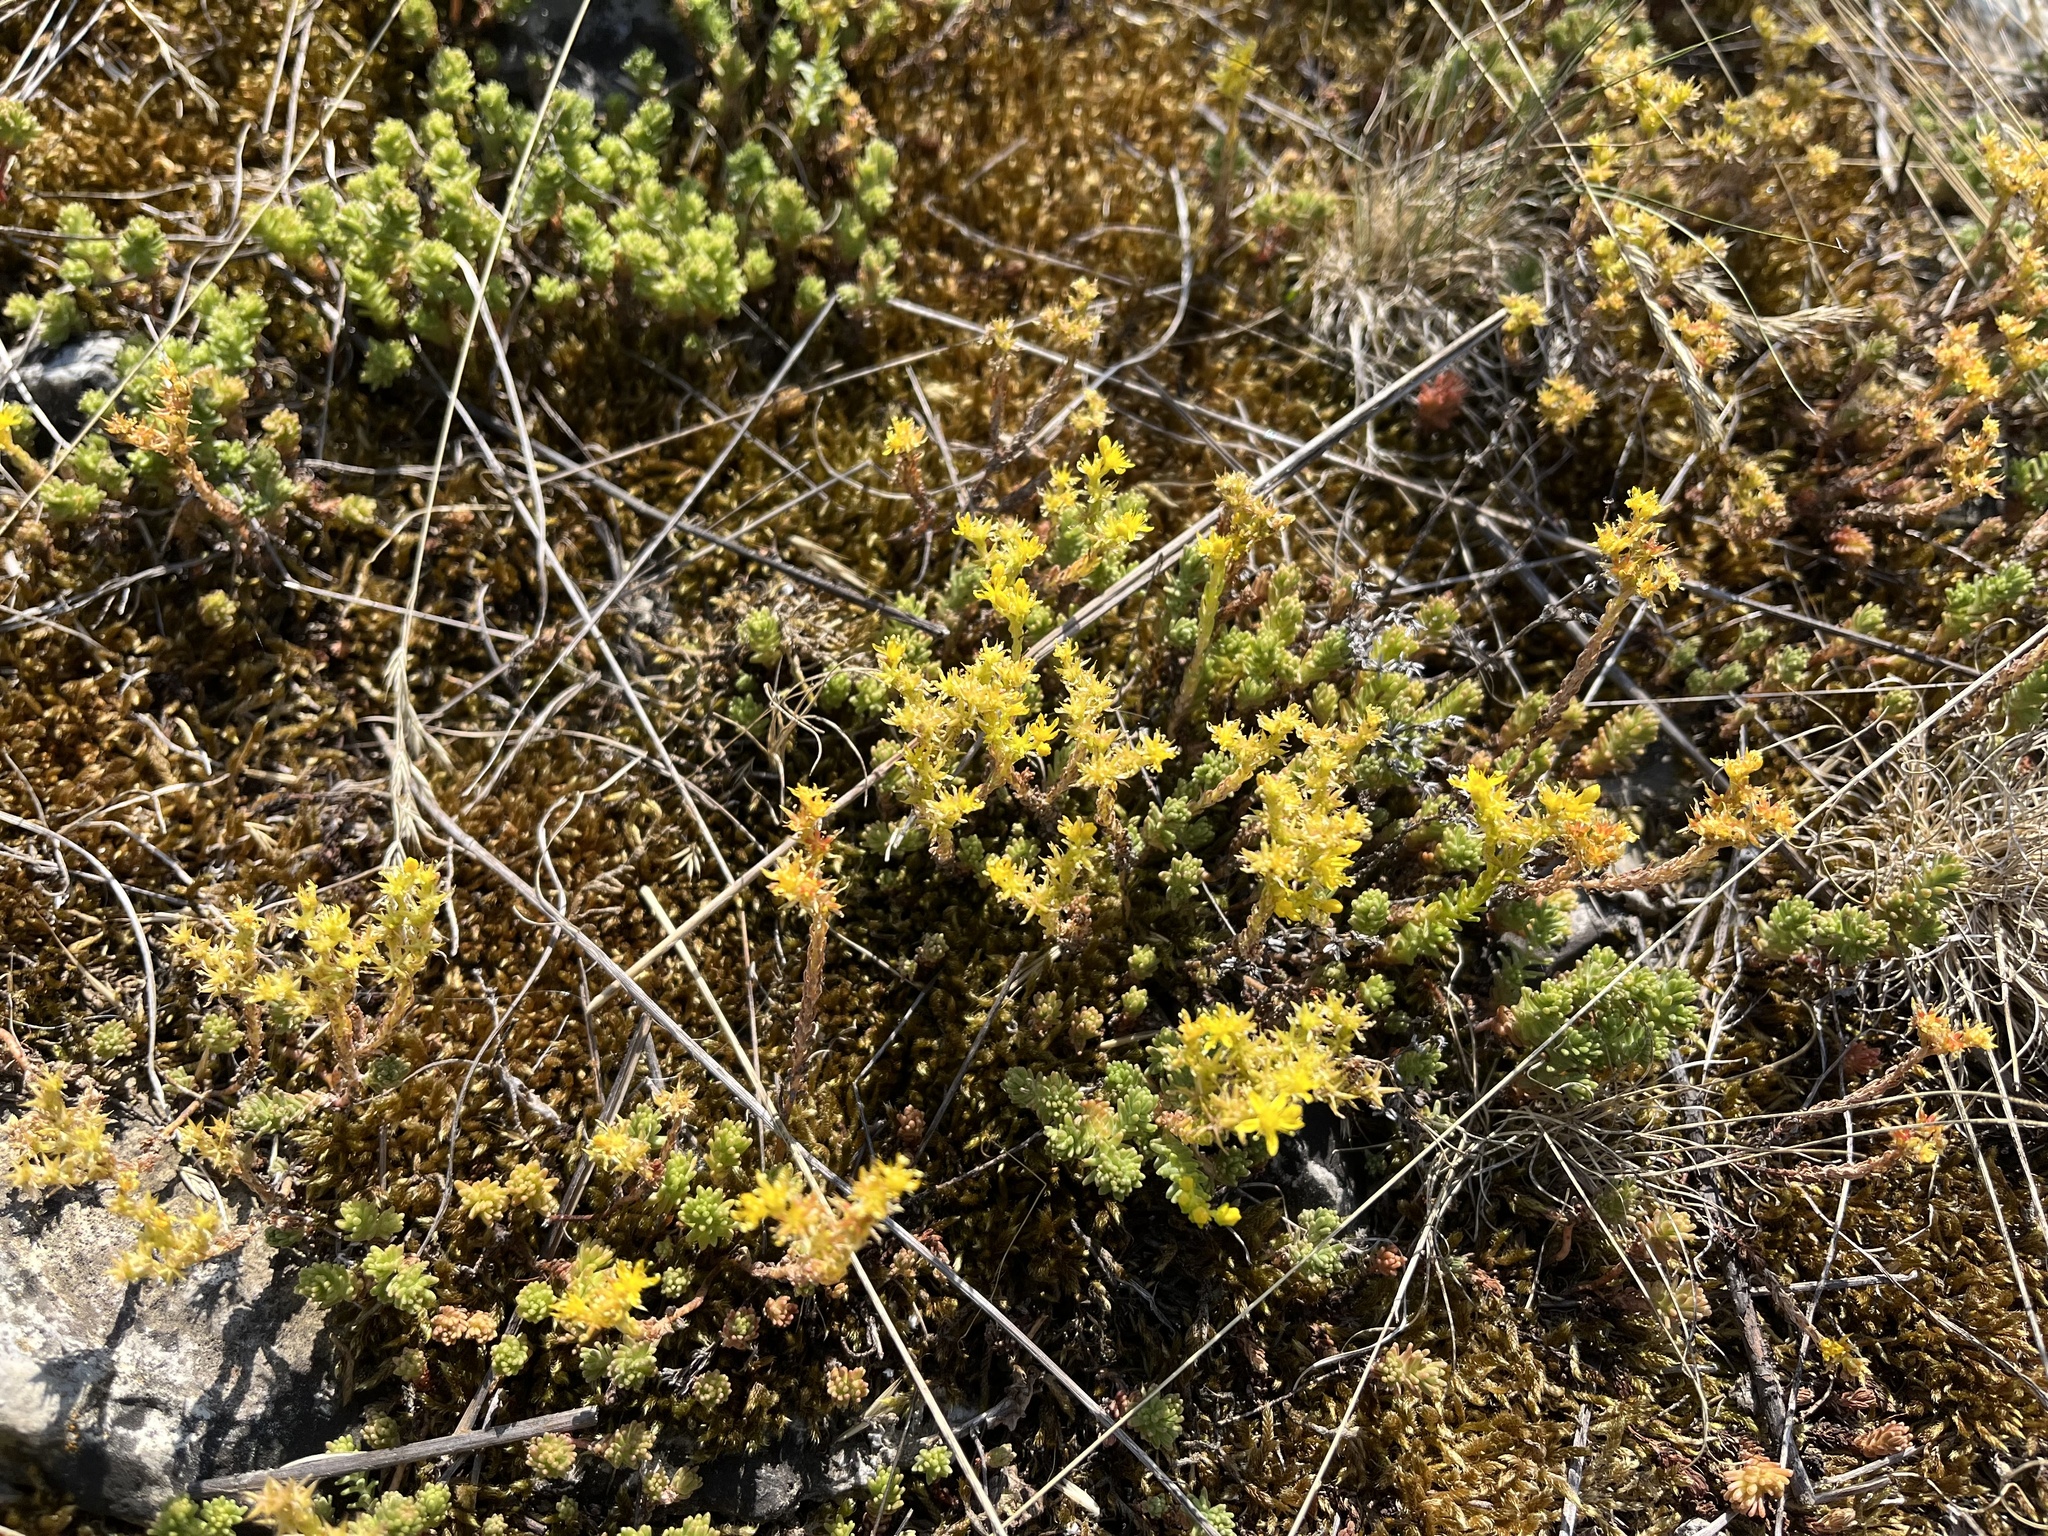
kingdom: Plantae
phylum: Tracheophyta
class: Magnoliopsida
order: Saxifragales
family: Crassulaceae
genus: Sedum
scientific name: Sedum sexangulare
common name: Tasteless stonecrop
